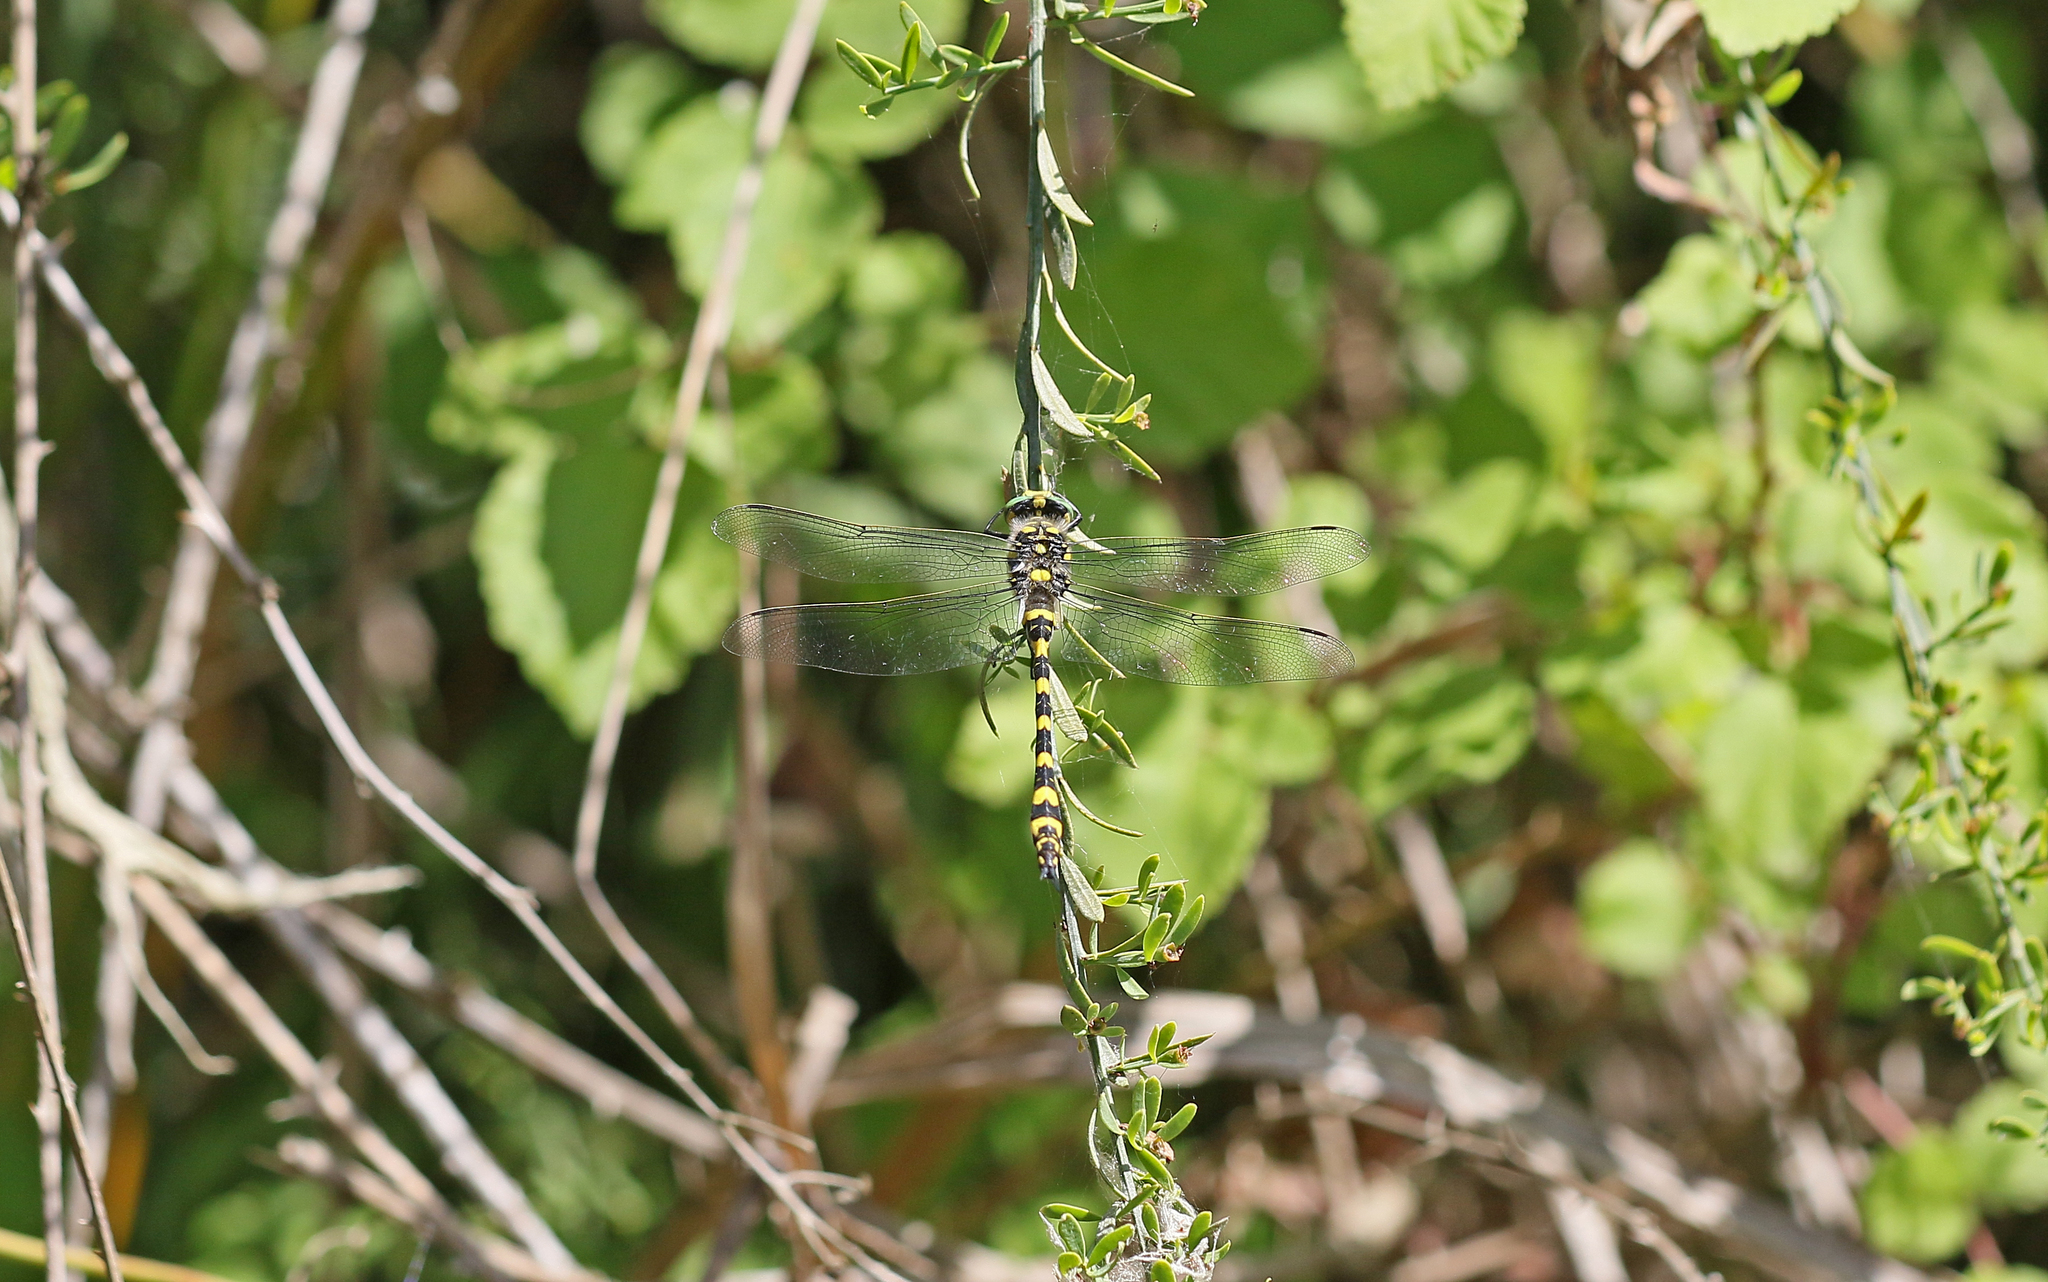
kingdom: Animalia
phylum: Arthropoda
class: Insecta
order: Odonata
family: Cordulegastridae
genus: Cordulegaster
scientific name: Cordulegaster boltonii
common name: Golden-ringed dragonfly
